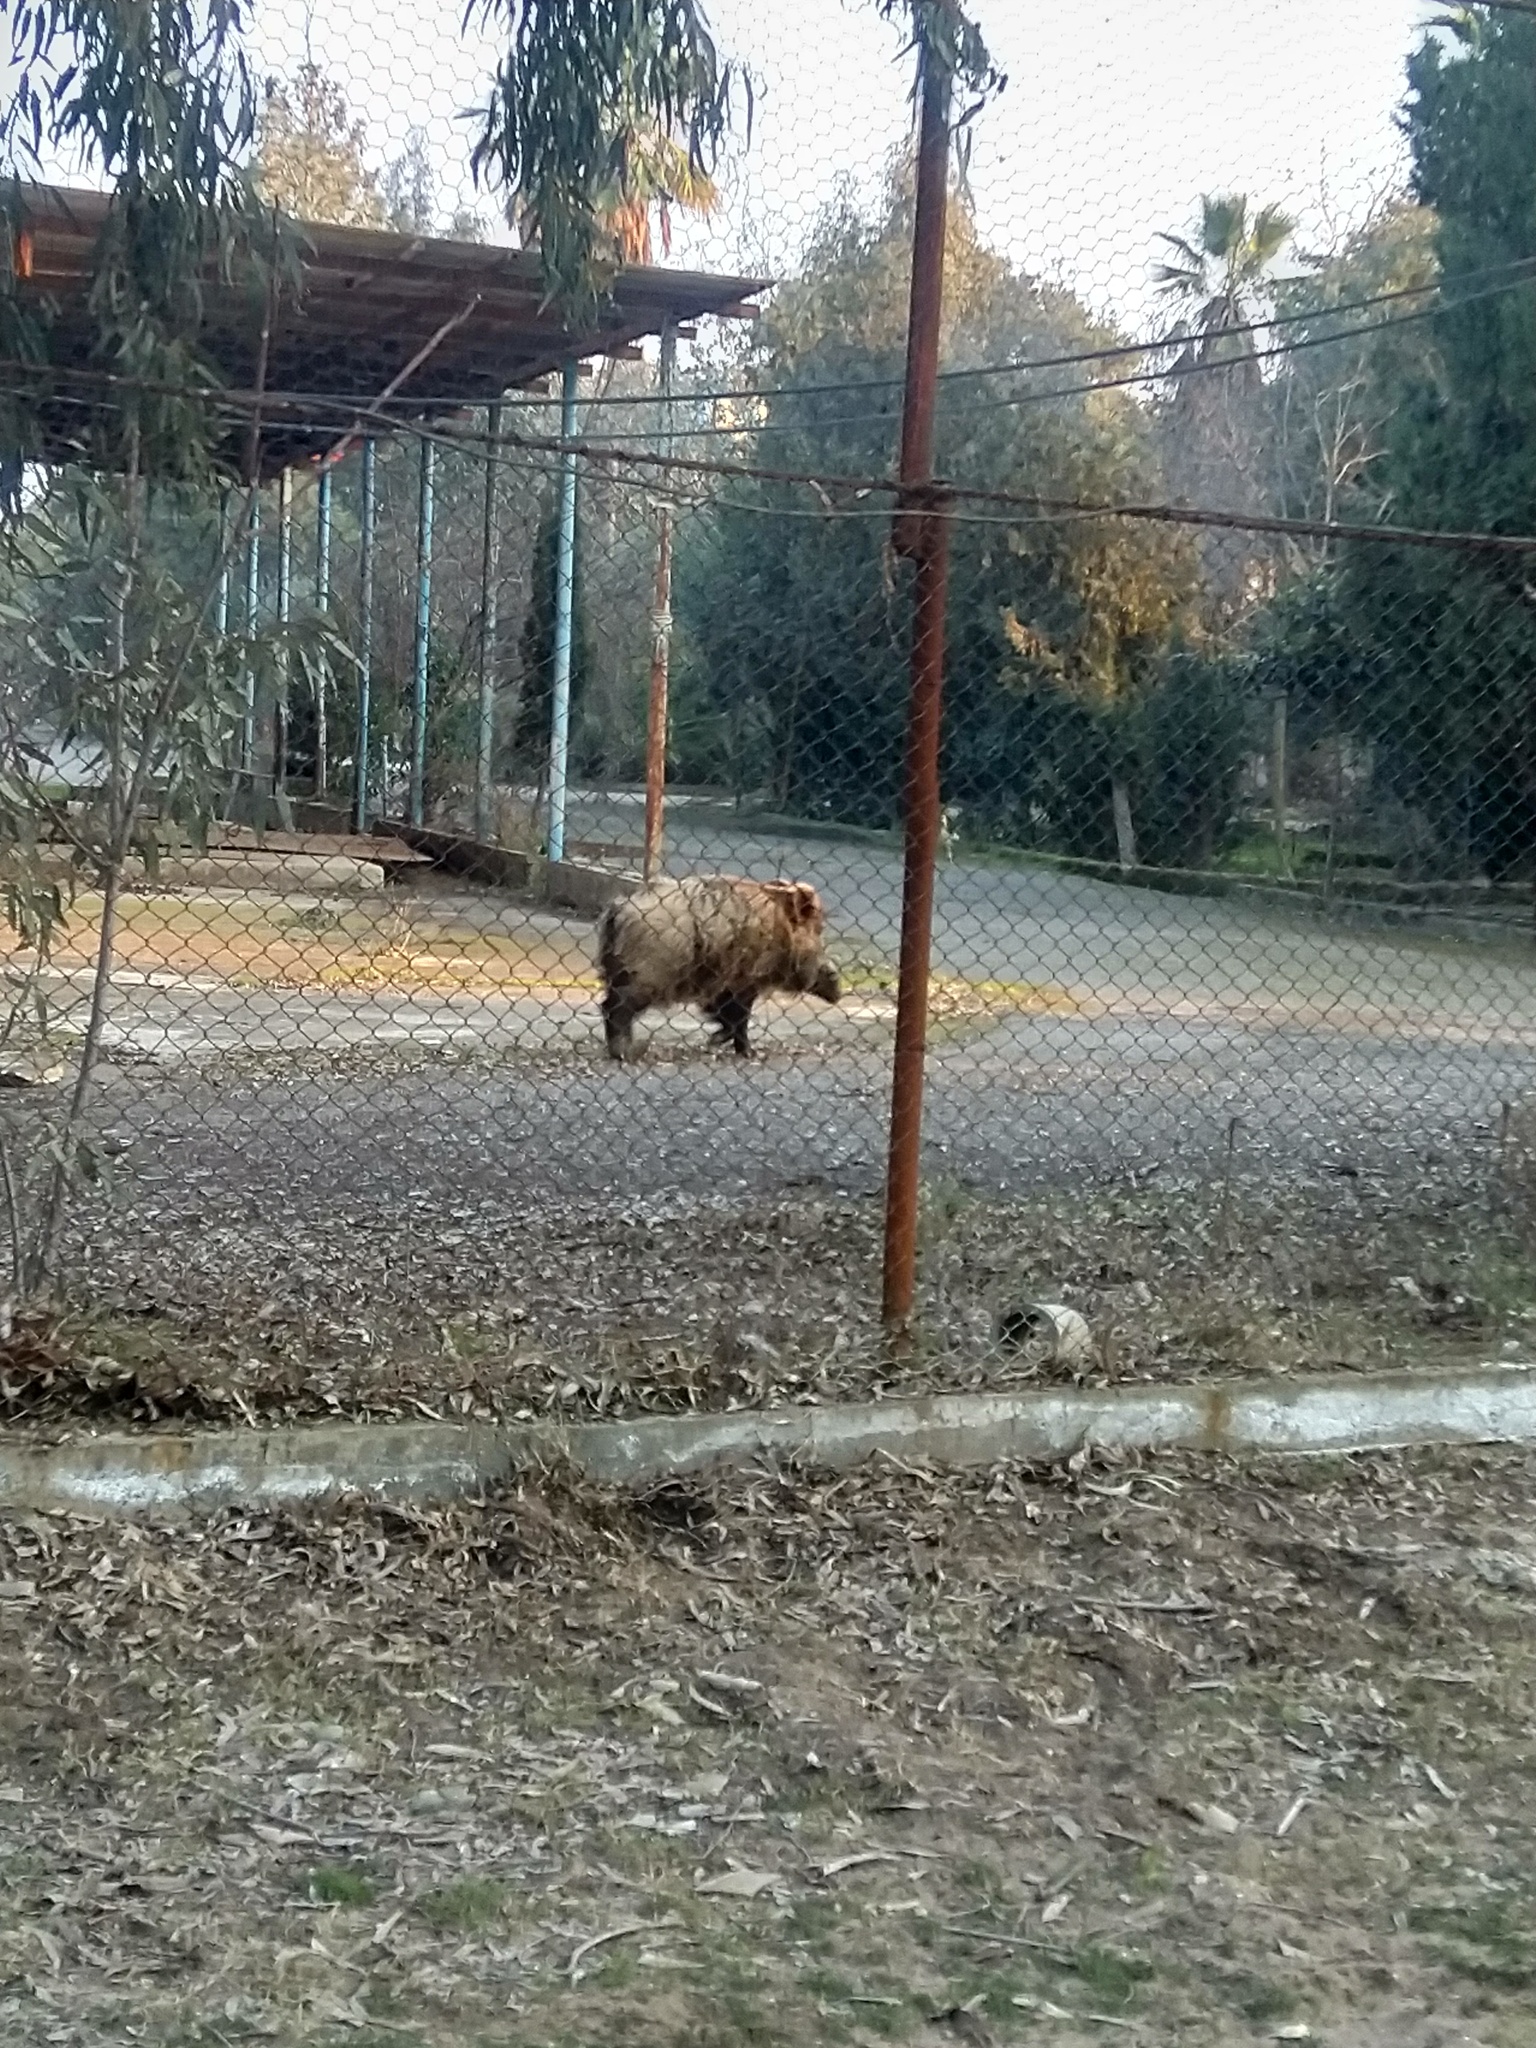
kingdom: Animalia
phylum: Chordata
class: Mammalia
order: Artiodactyla
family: Suidae
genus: Sus
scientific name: Sus scrofa
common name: Wild boar
